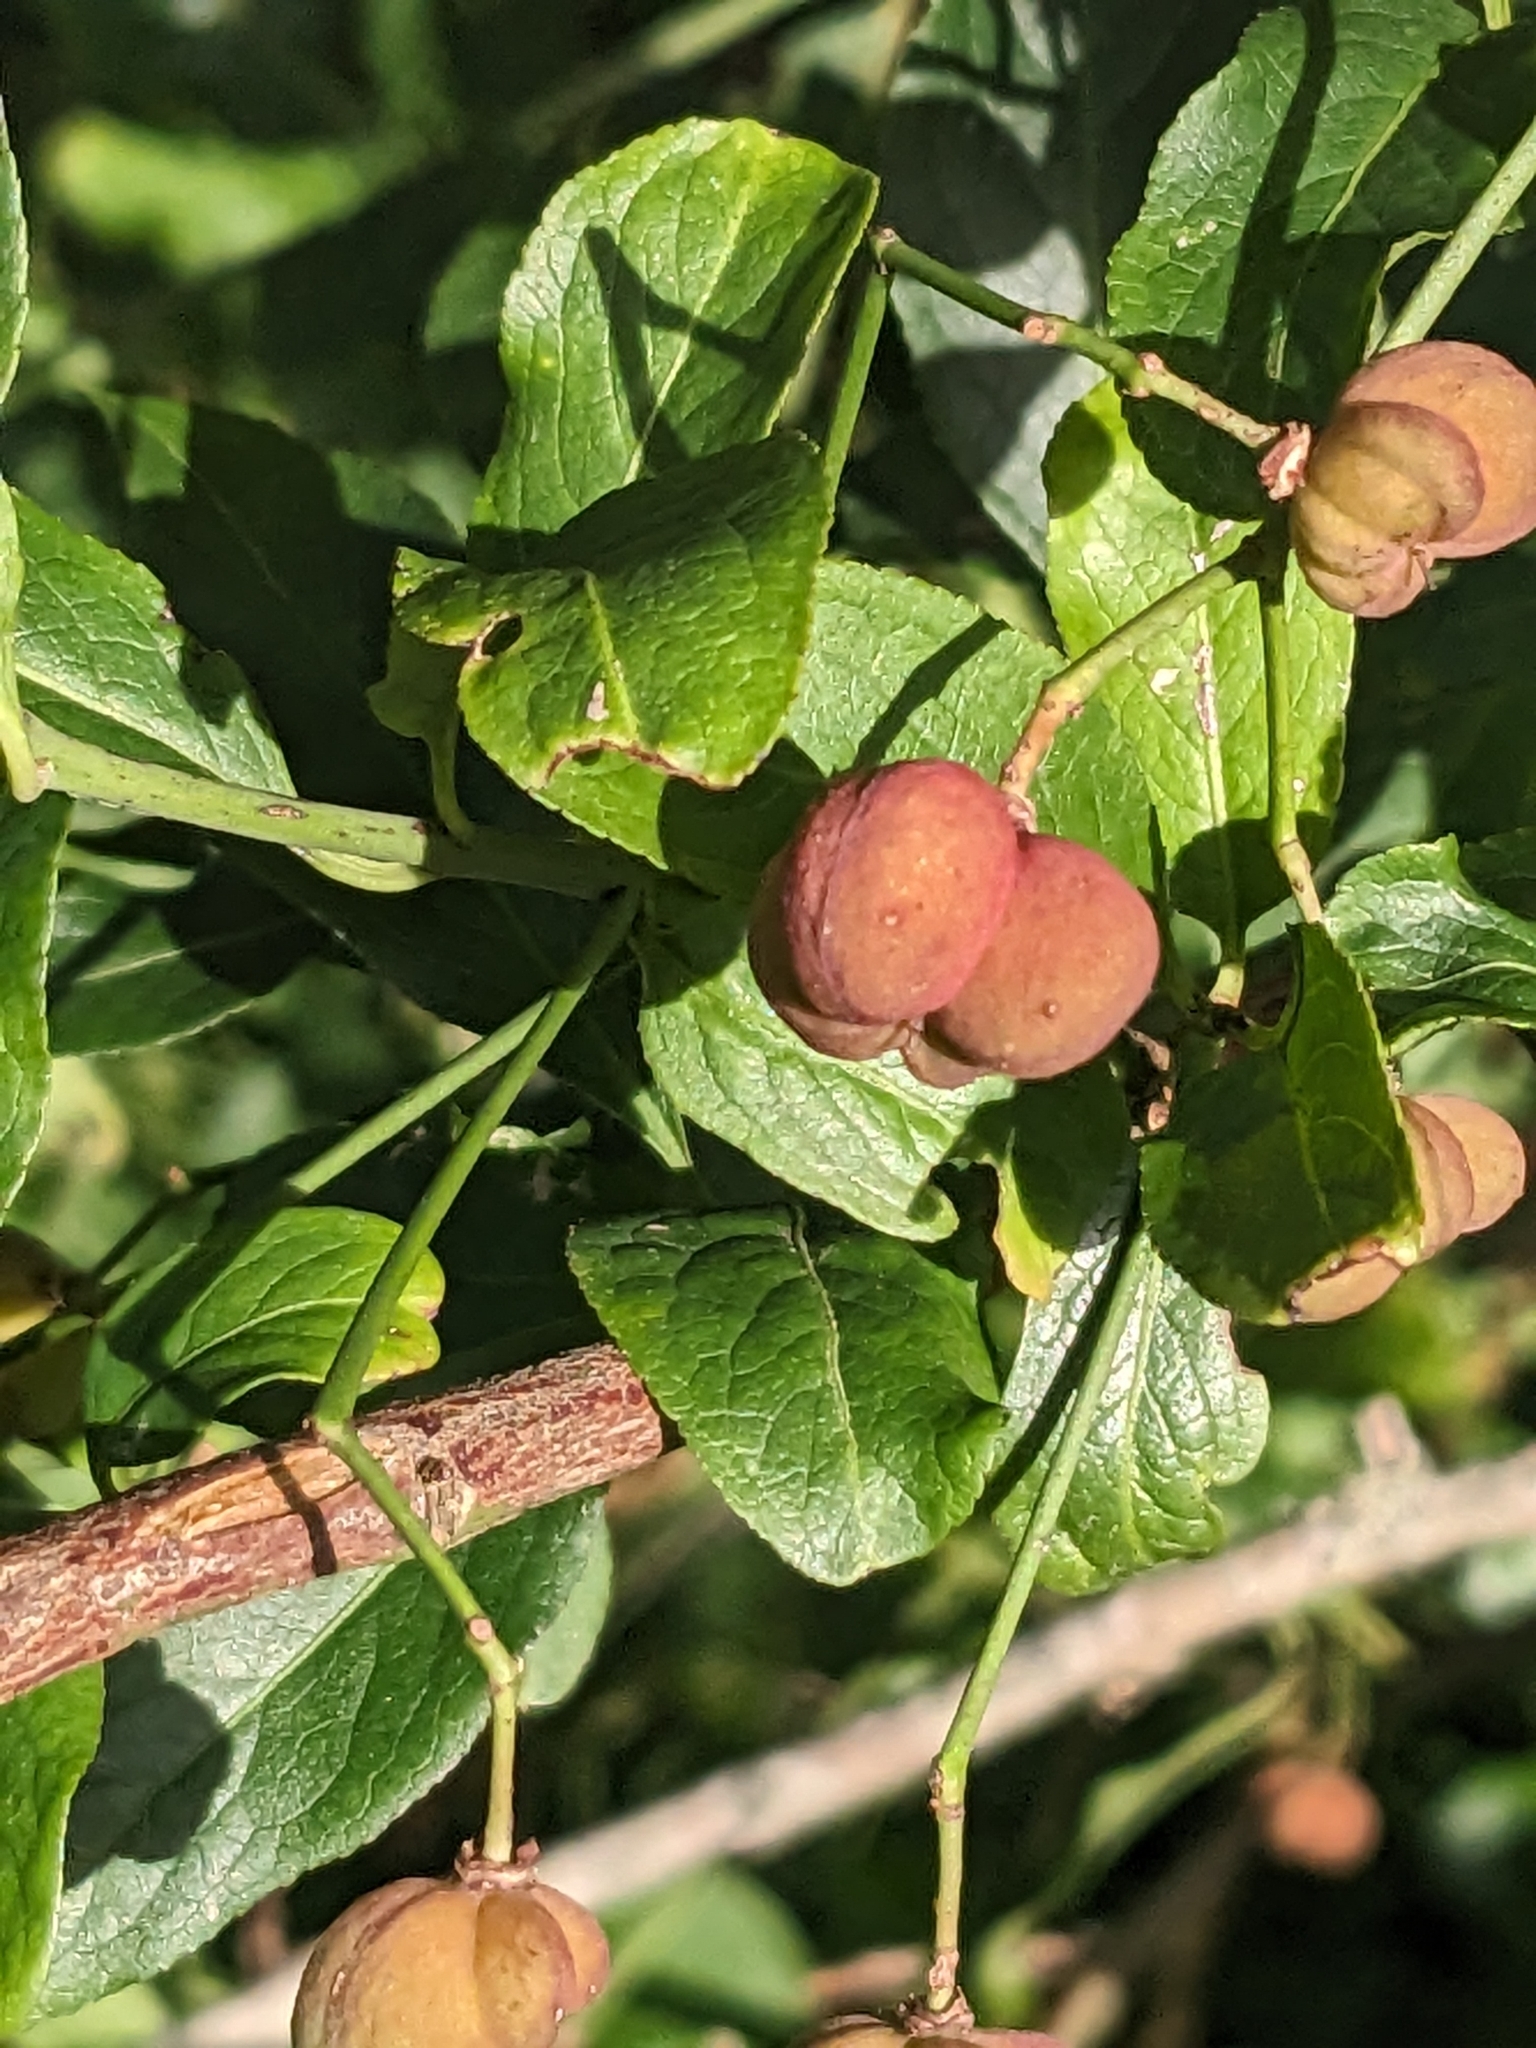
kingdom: Plantae
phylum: Tracheophyta
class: Magnoliopsida
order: Celastrales
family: Celastraceae
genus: Euonymus
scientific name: Euonymus europaeus
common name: Spindle
